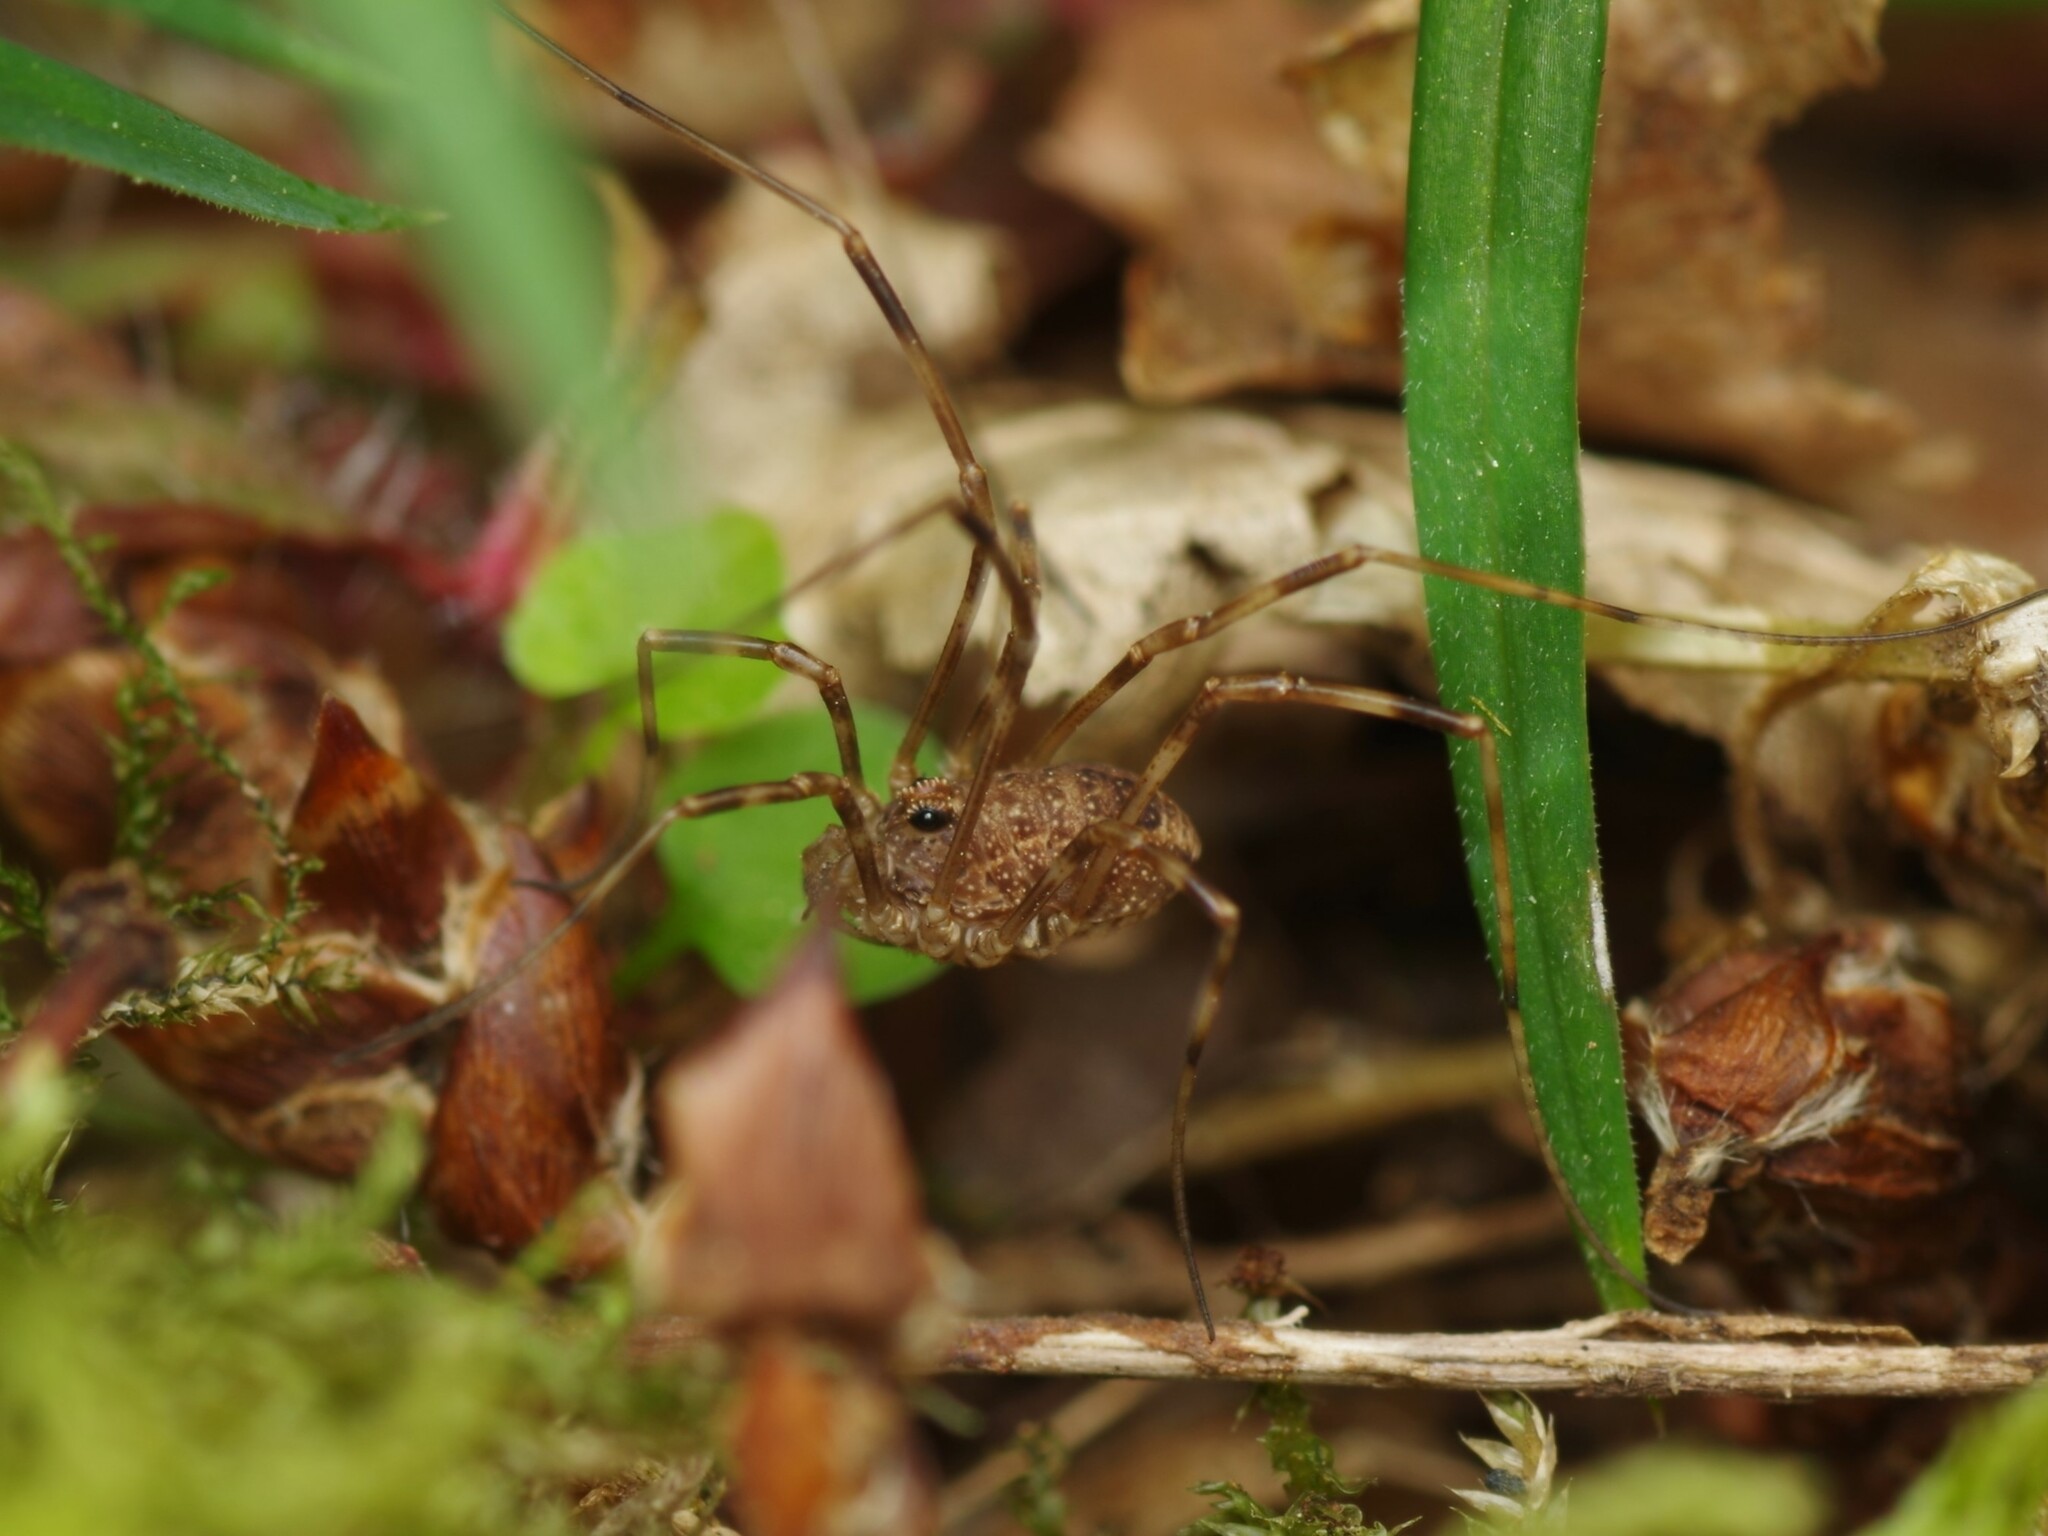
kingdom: Animalia
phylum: Arthropoda
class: Arachnida
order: Opiliones
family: Phalangiidae
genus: Rilaena
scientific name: Rilaena triangularis
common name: Spring harvestman
